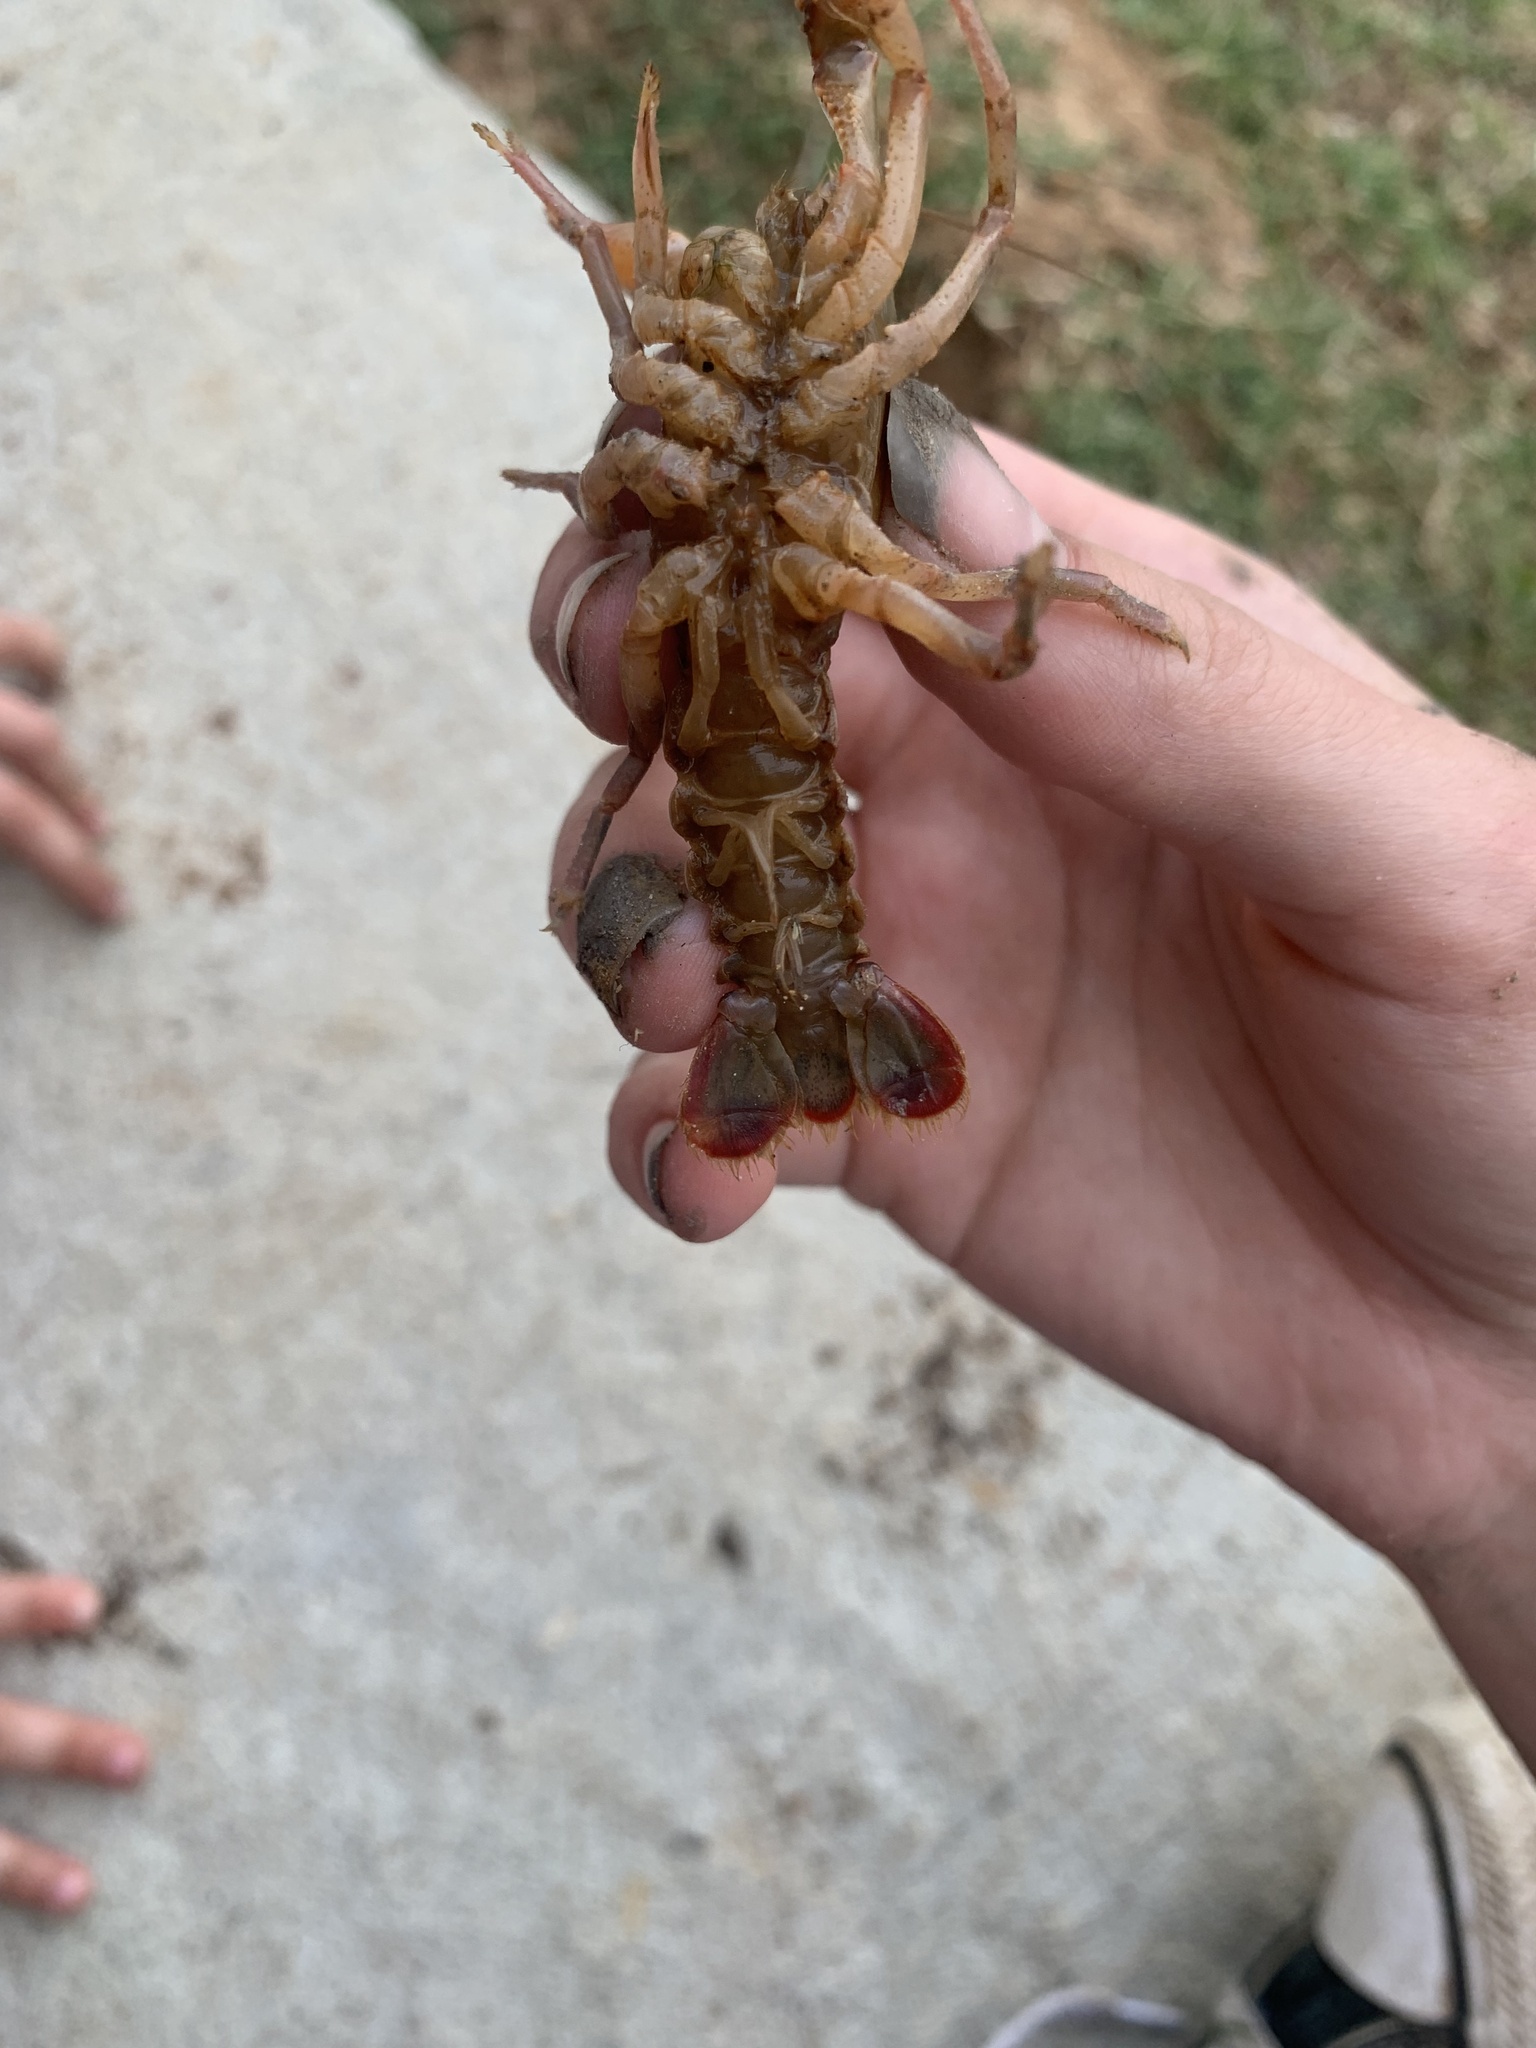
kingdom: Animalia
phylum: Arthropoda
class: Malacostraca
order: Decapoda
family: Cambaridae
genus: Lacunicambarus
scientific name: Lacunicambarus ludovicianus
